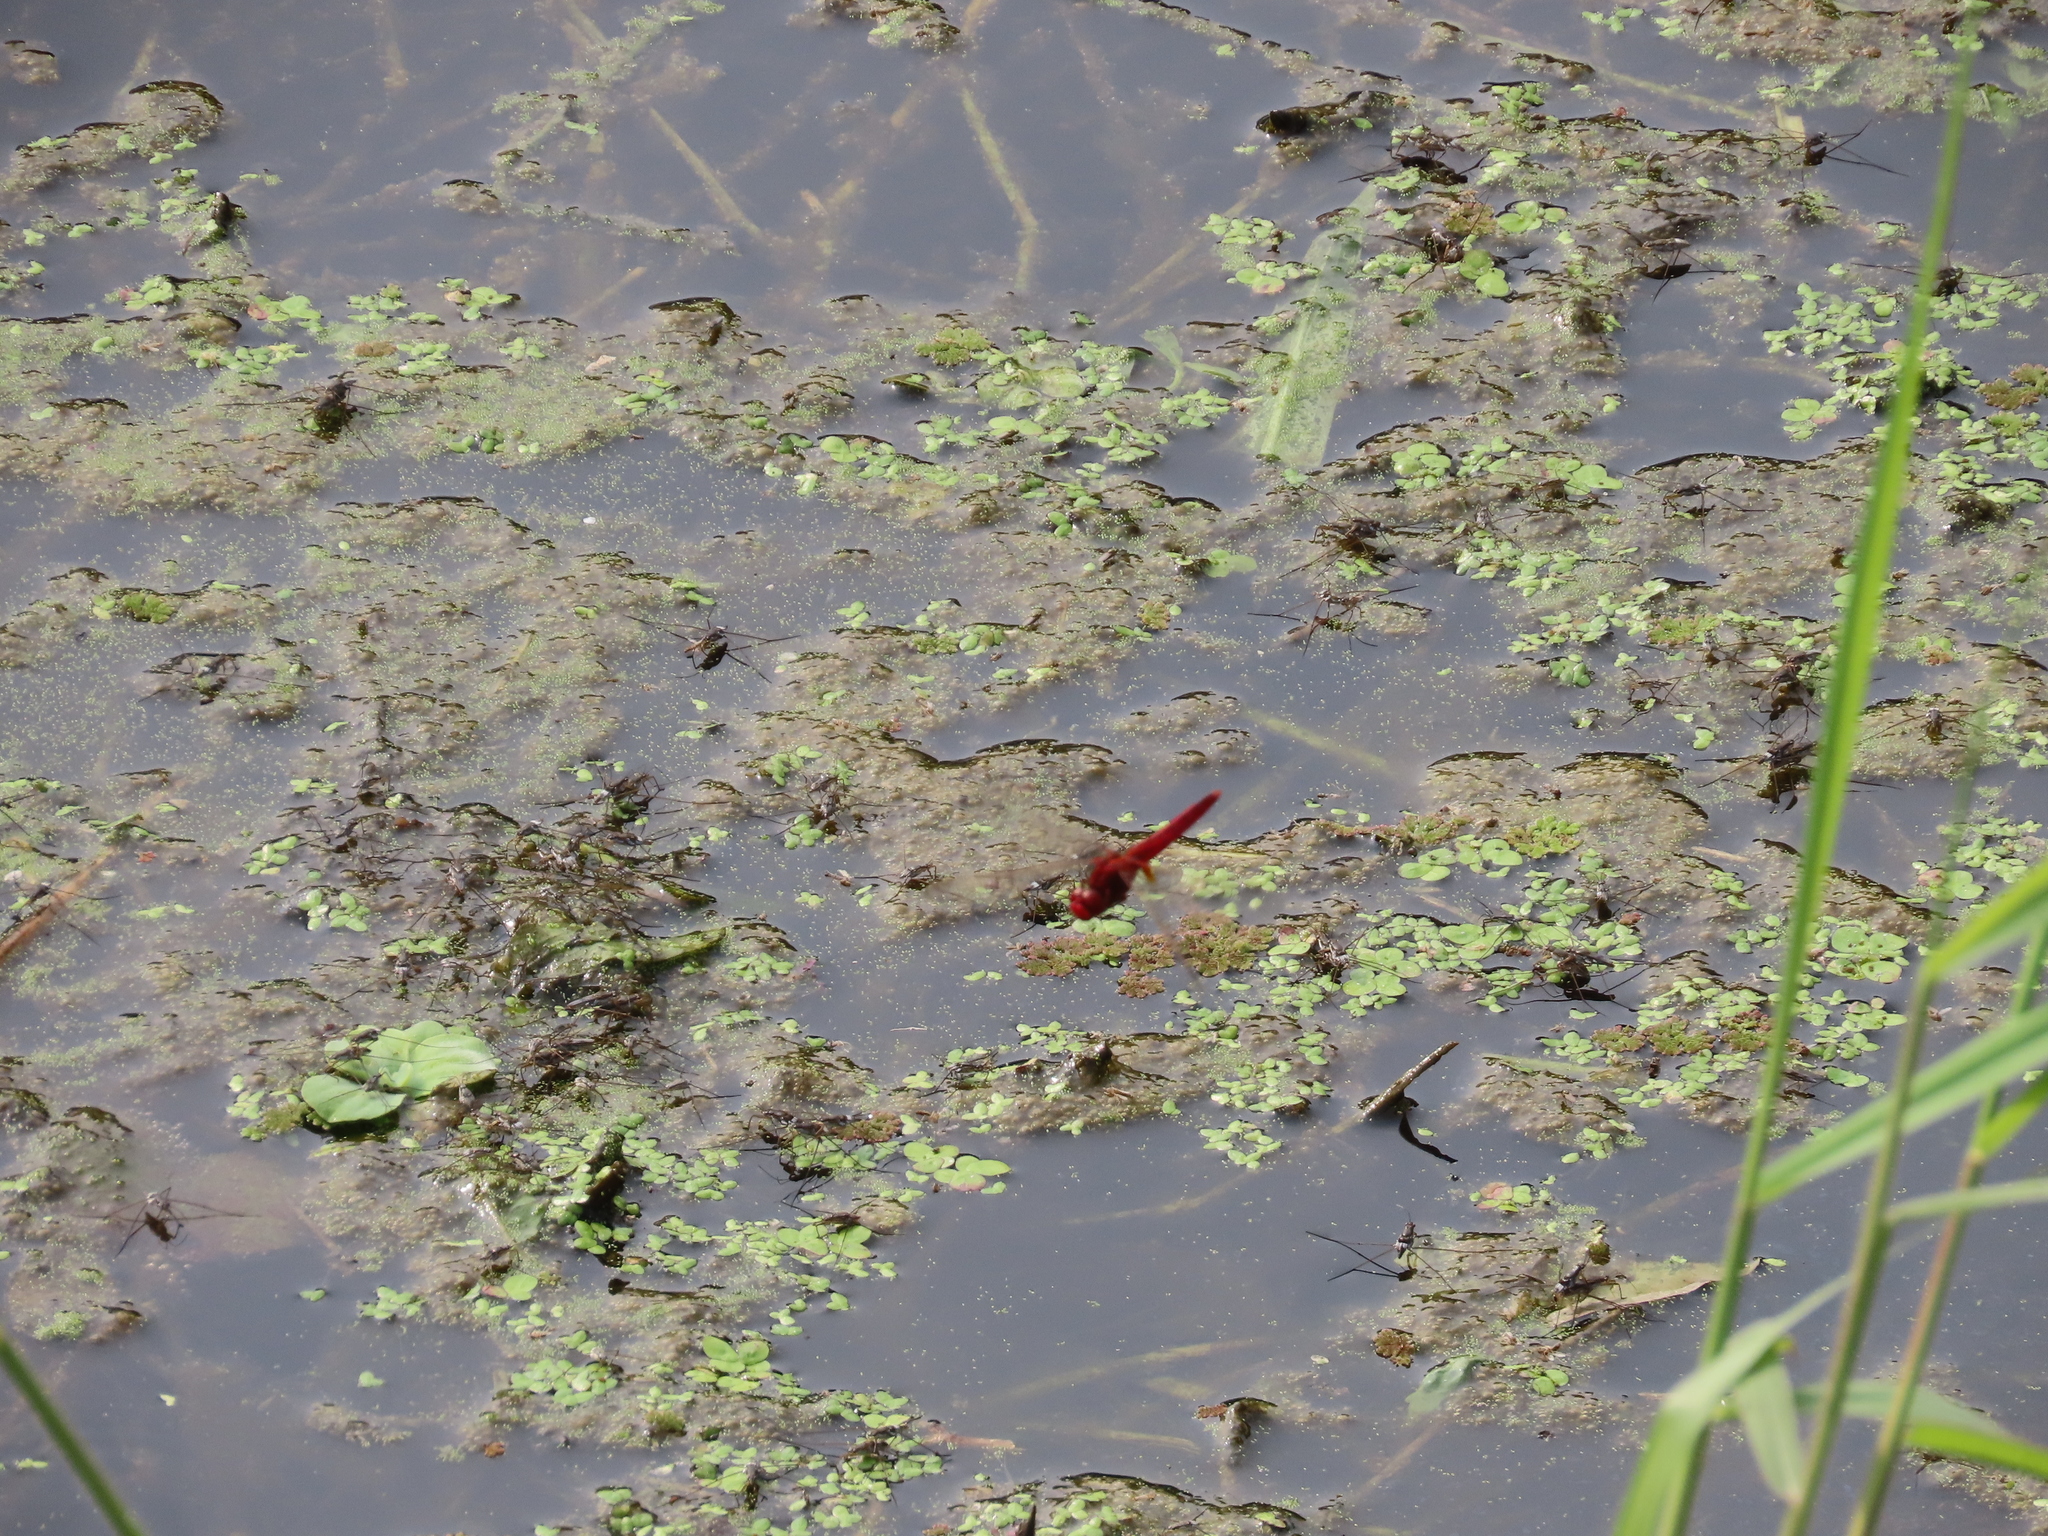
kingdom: Animalia
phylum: Arthropoda
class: Insecta
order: Odonata
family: Libellulidae
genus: Crocothemis
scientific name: Crocothemis servilia
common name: Scarlet skimmer
